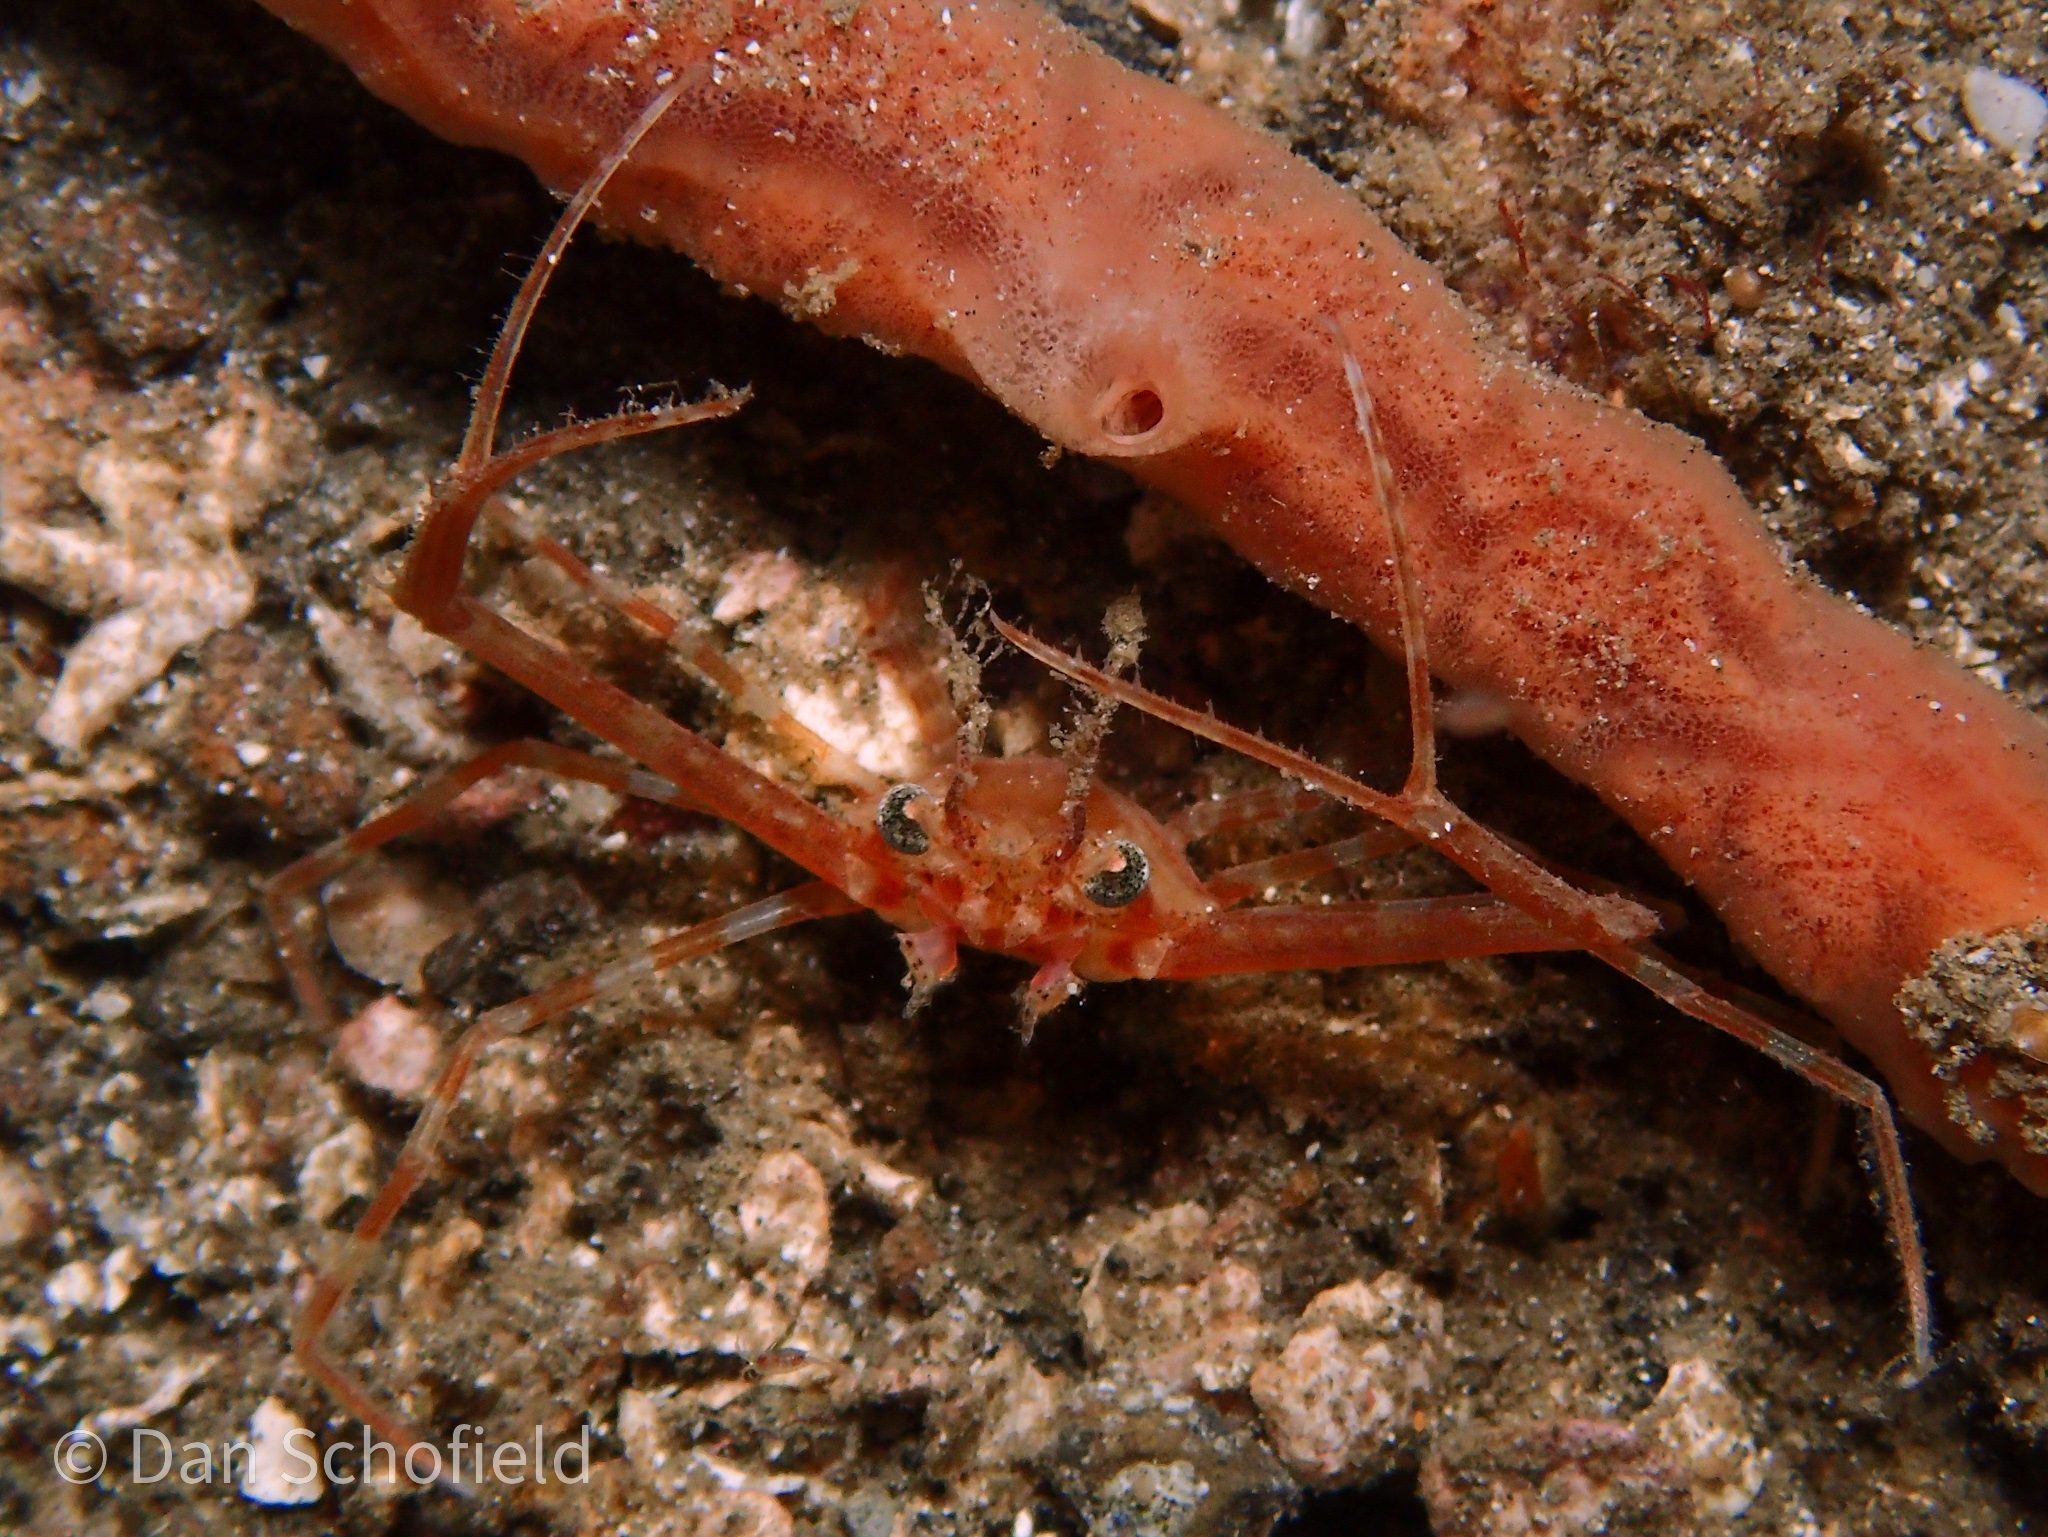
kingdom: Animalia
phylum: Arthropoda
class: Malacostraca
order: Decapoda
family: Portunidae
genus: Lupocyclus
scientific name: Lupocyclus philippinensis
